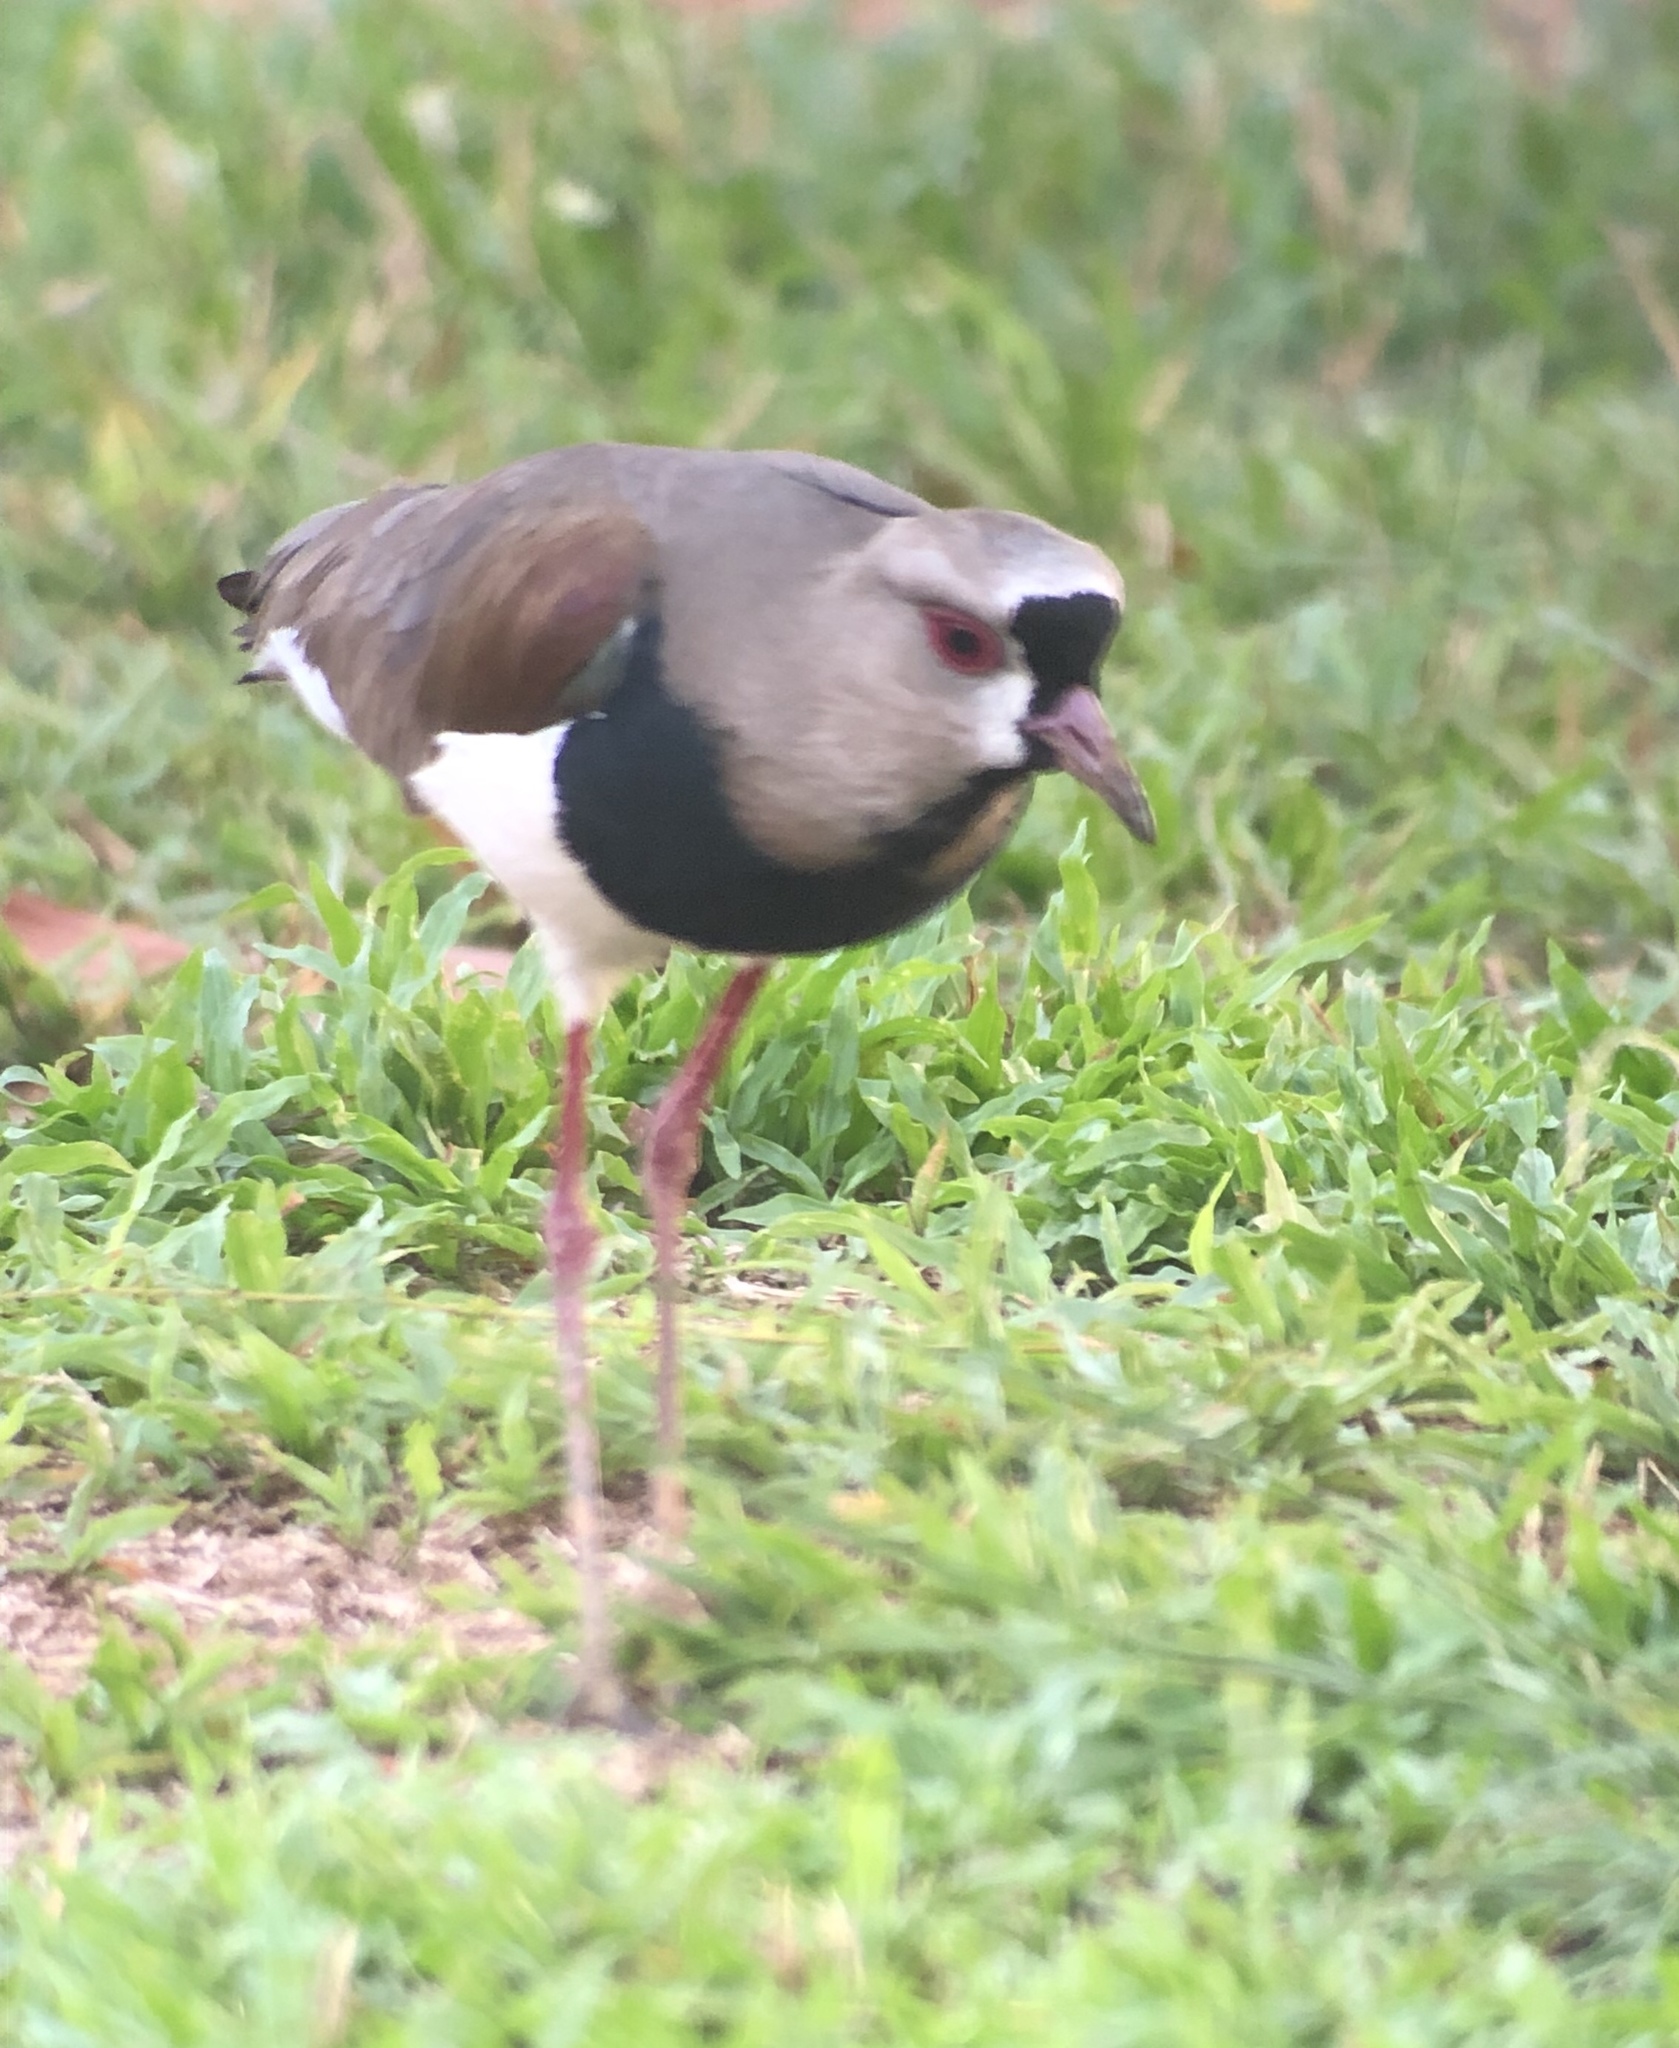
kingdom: Animalia
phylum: Chordata
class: Aves
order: Charadriiformes
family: Charadriidae
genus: Vanellus
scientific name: Vanellus chilensis
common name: Southern lapwing
